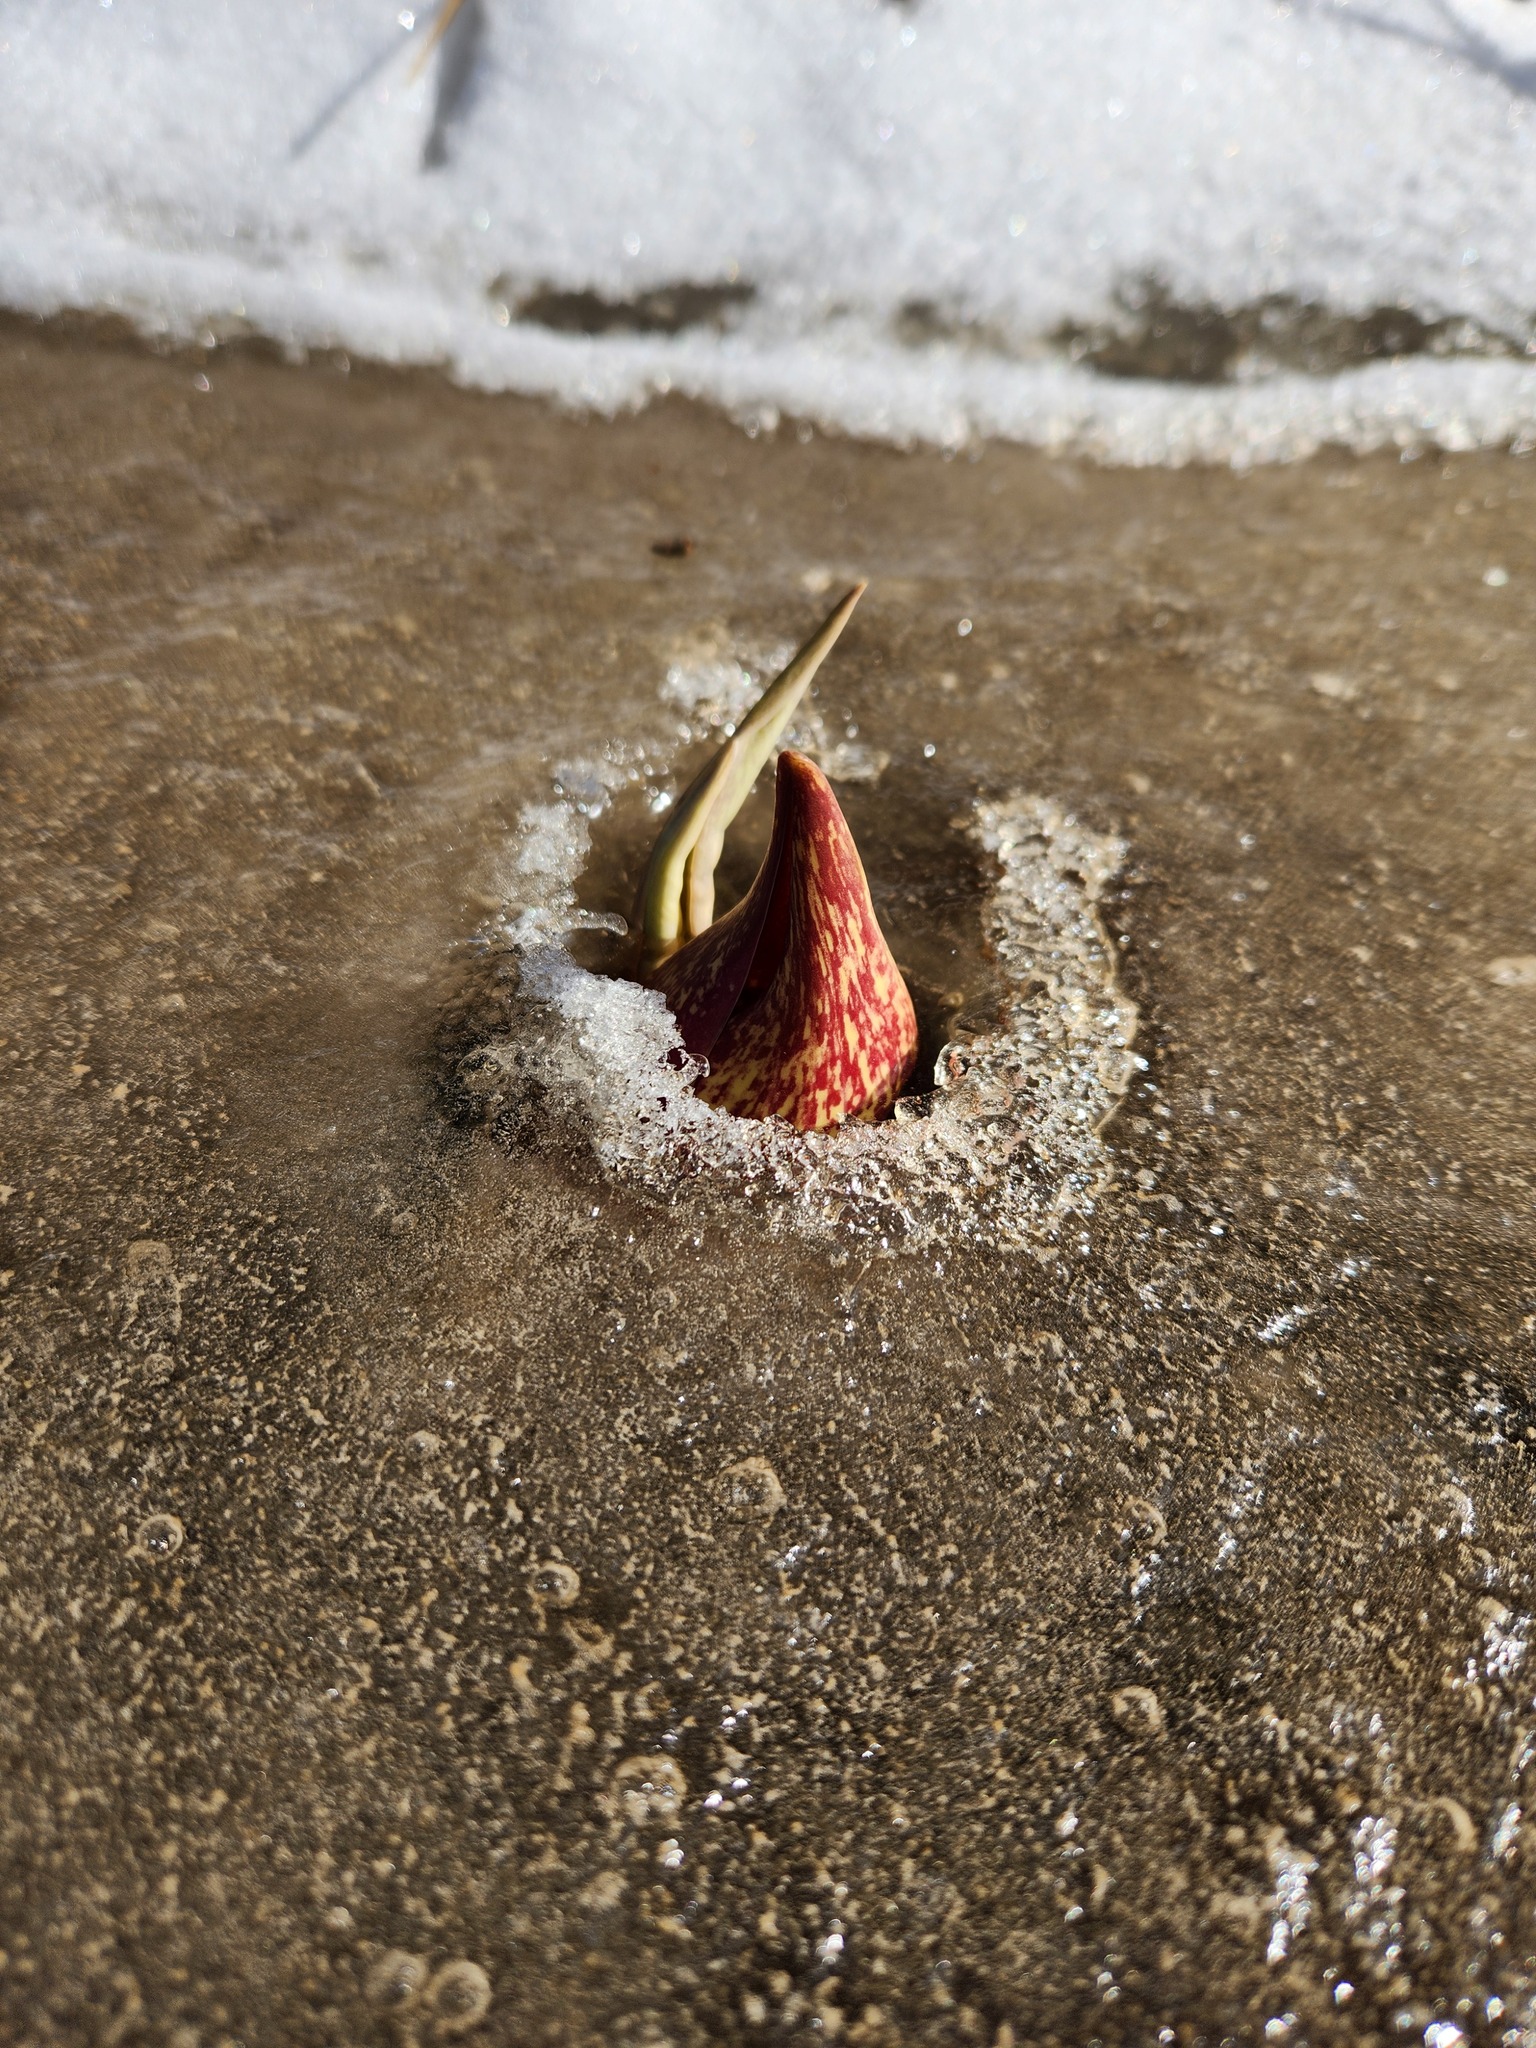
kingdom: Plantae
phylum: Tracheophyta
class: Liliopsida
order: Alismatales
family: Araceae
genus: Symplocarpus
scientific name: Symplocarpus foetidus
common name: Eastern skunk cabbage
